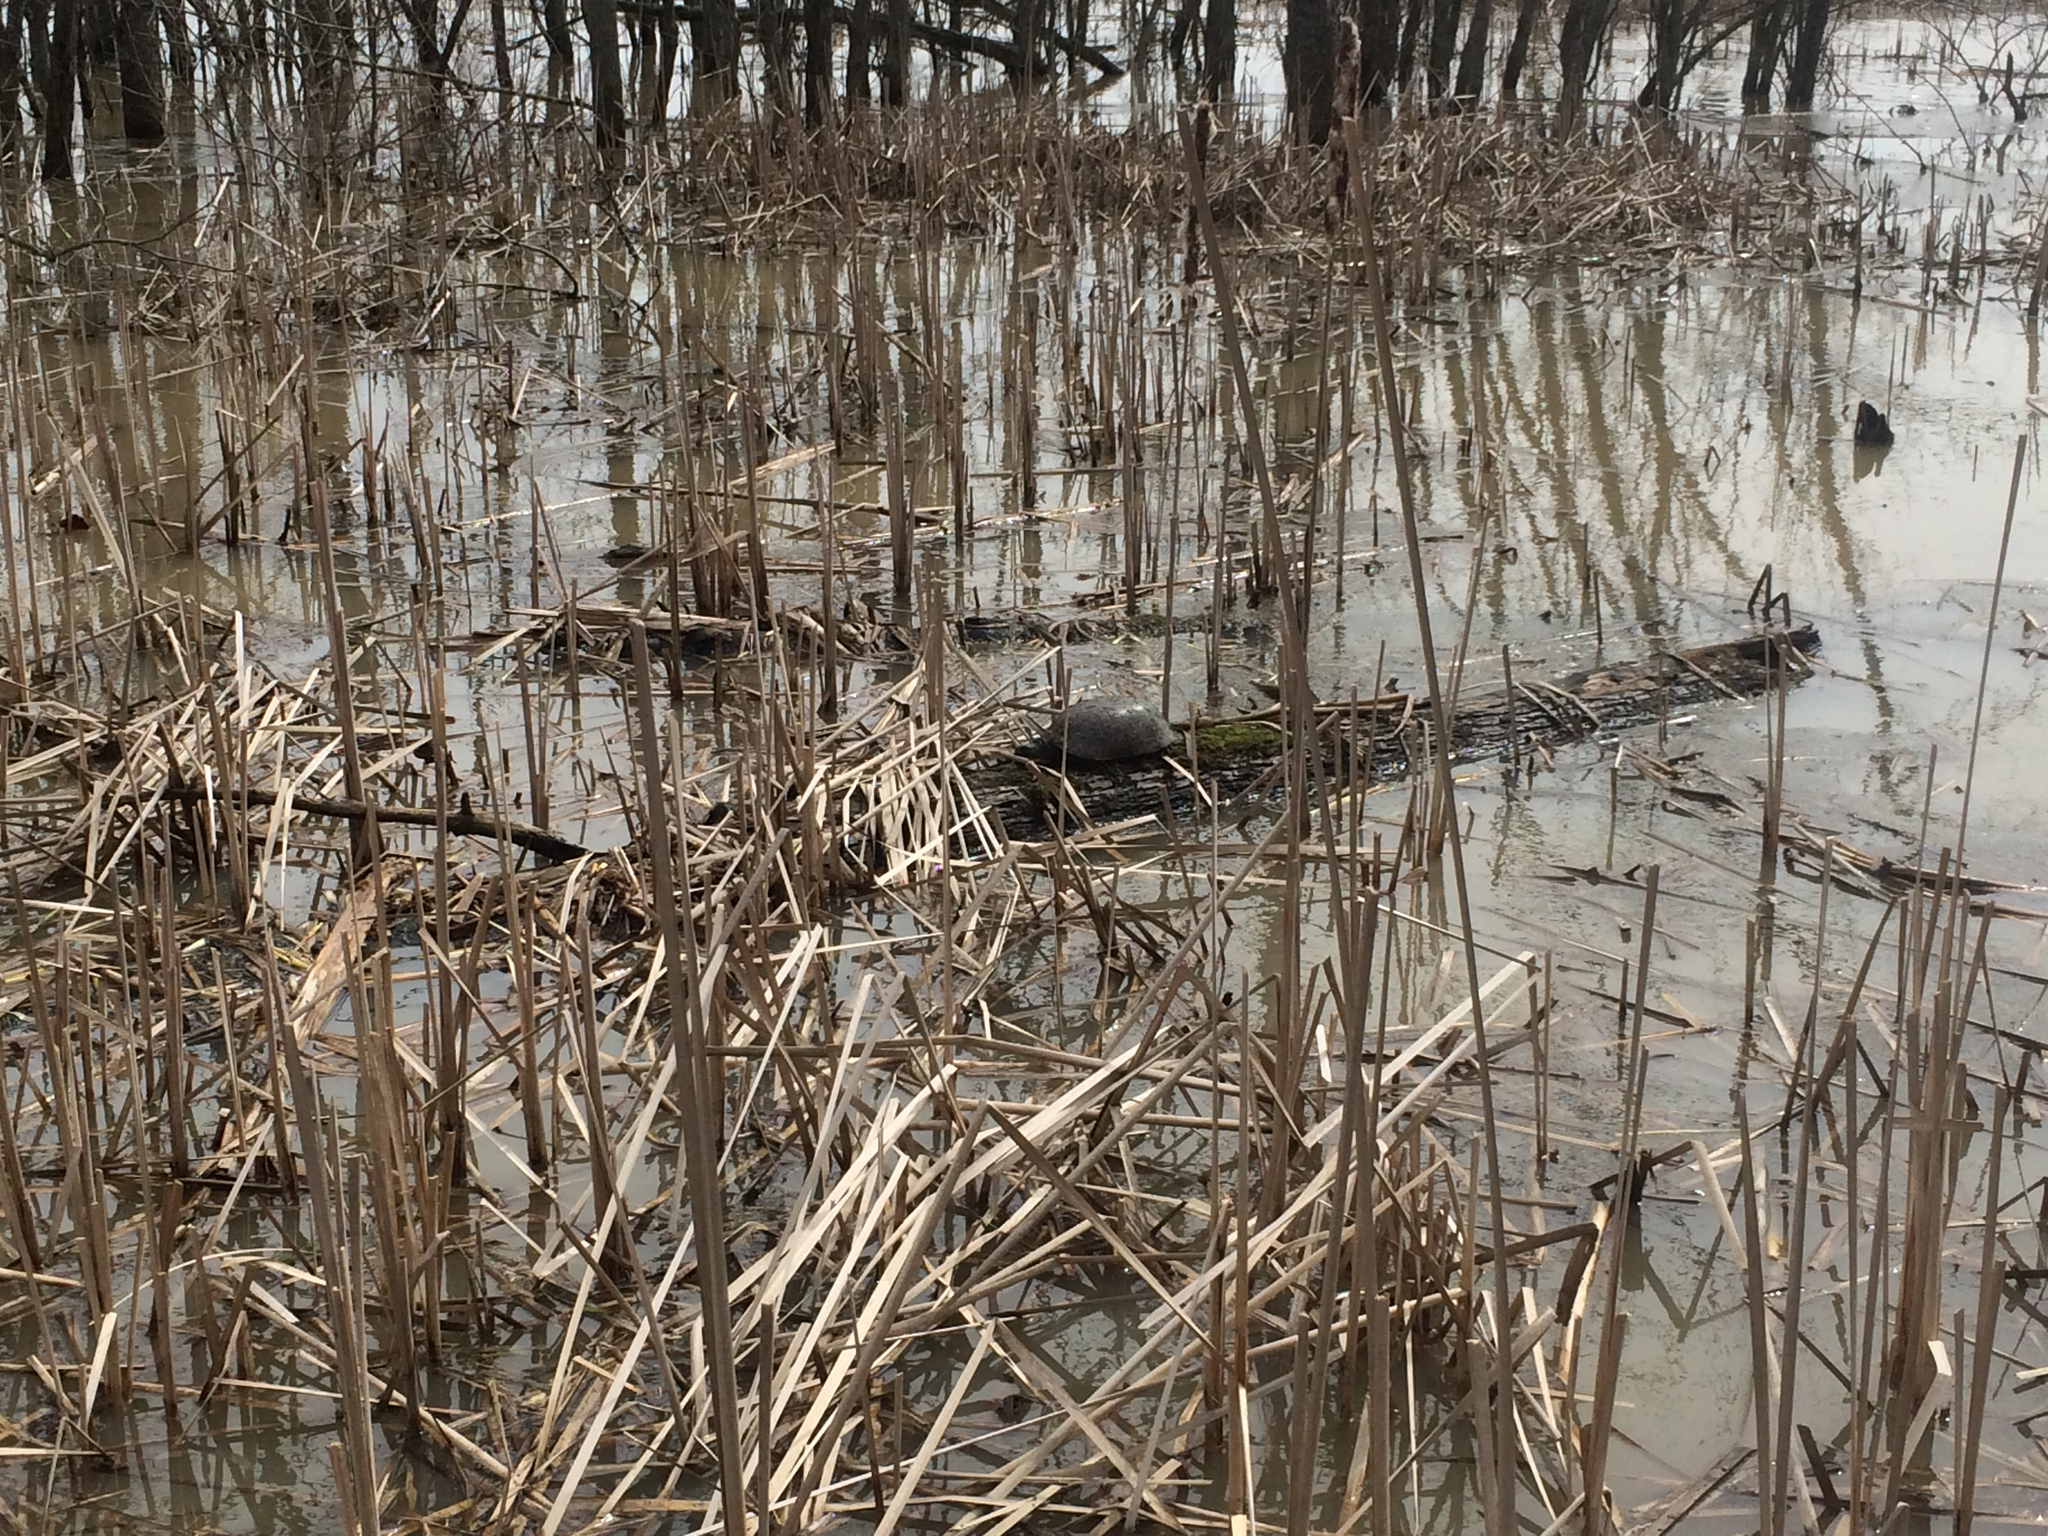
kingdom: Animalia
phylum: Chordata
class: Testudines
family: Emydidae
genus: Emys
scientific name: Emys blandingii
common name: Blanding's turtle
